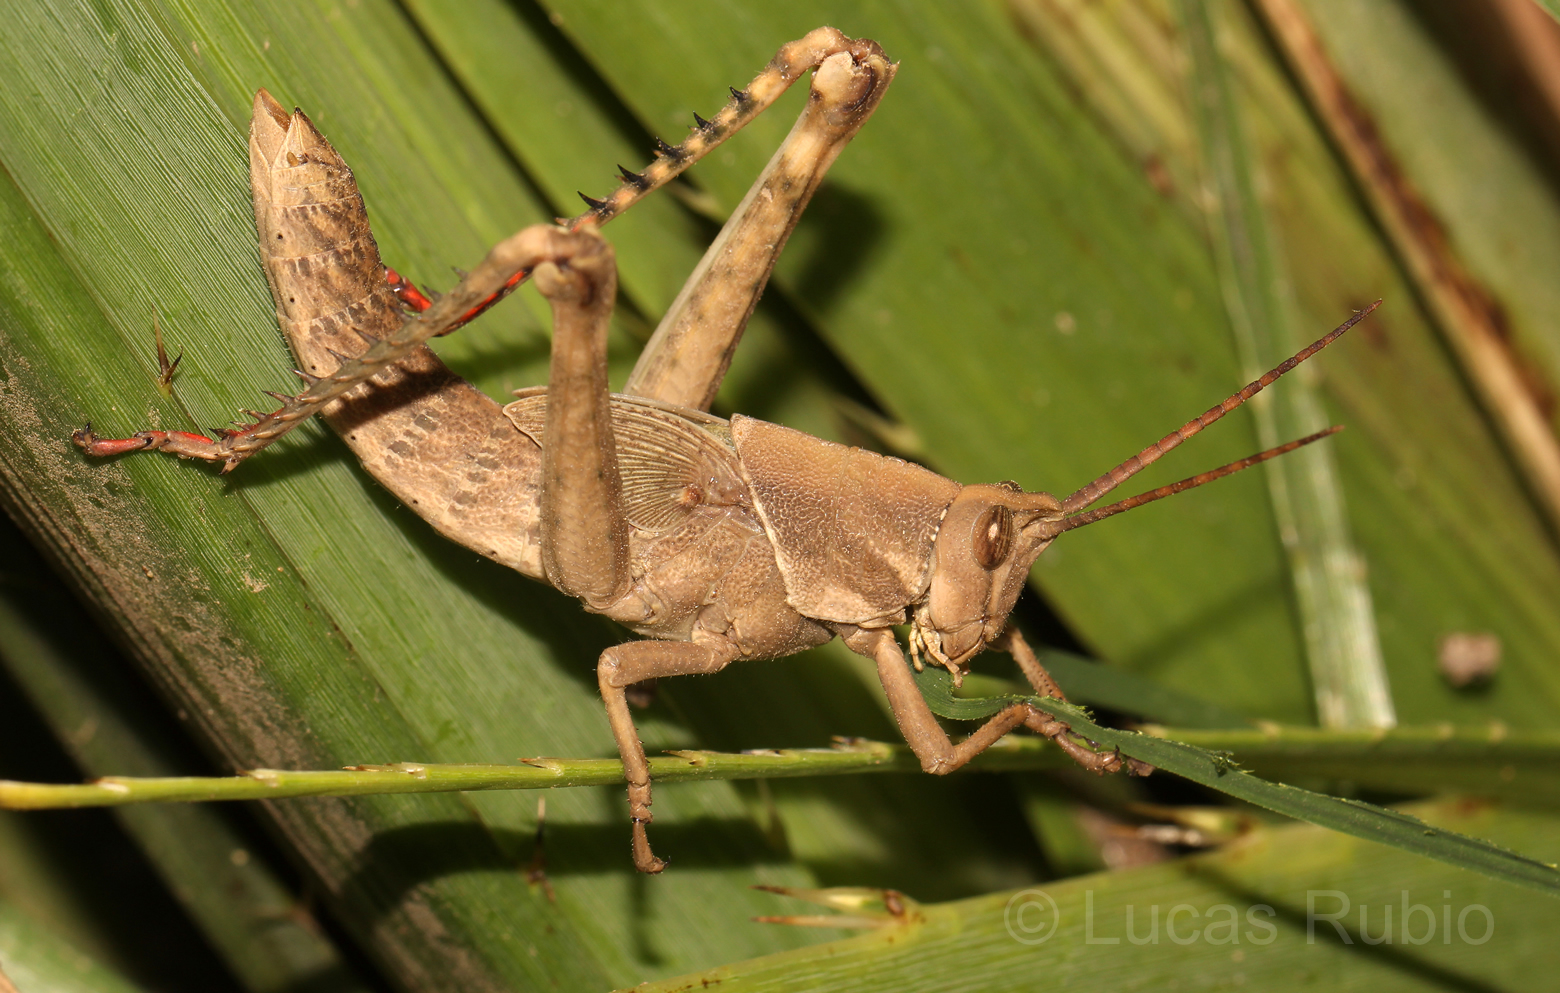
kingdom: Animalia
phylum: Arthropoda
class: Insecta
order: Orthoptera
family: Romaleidae
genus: Coryacris
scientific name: Coryacris angustipennis
